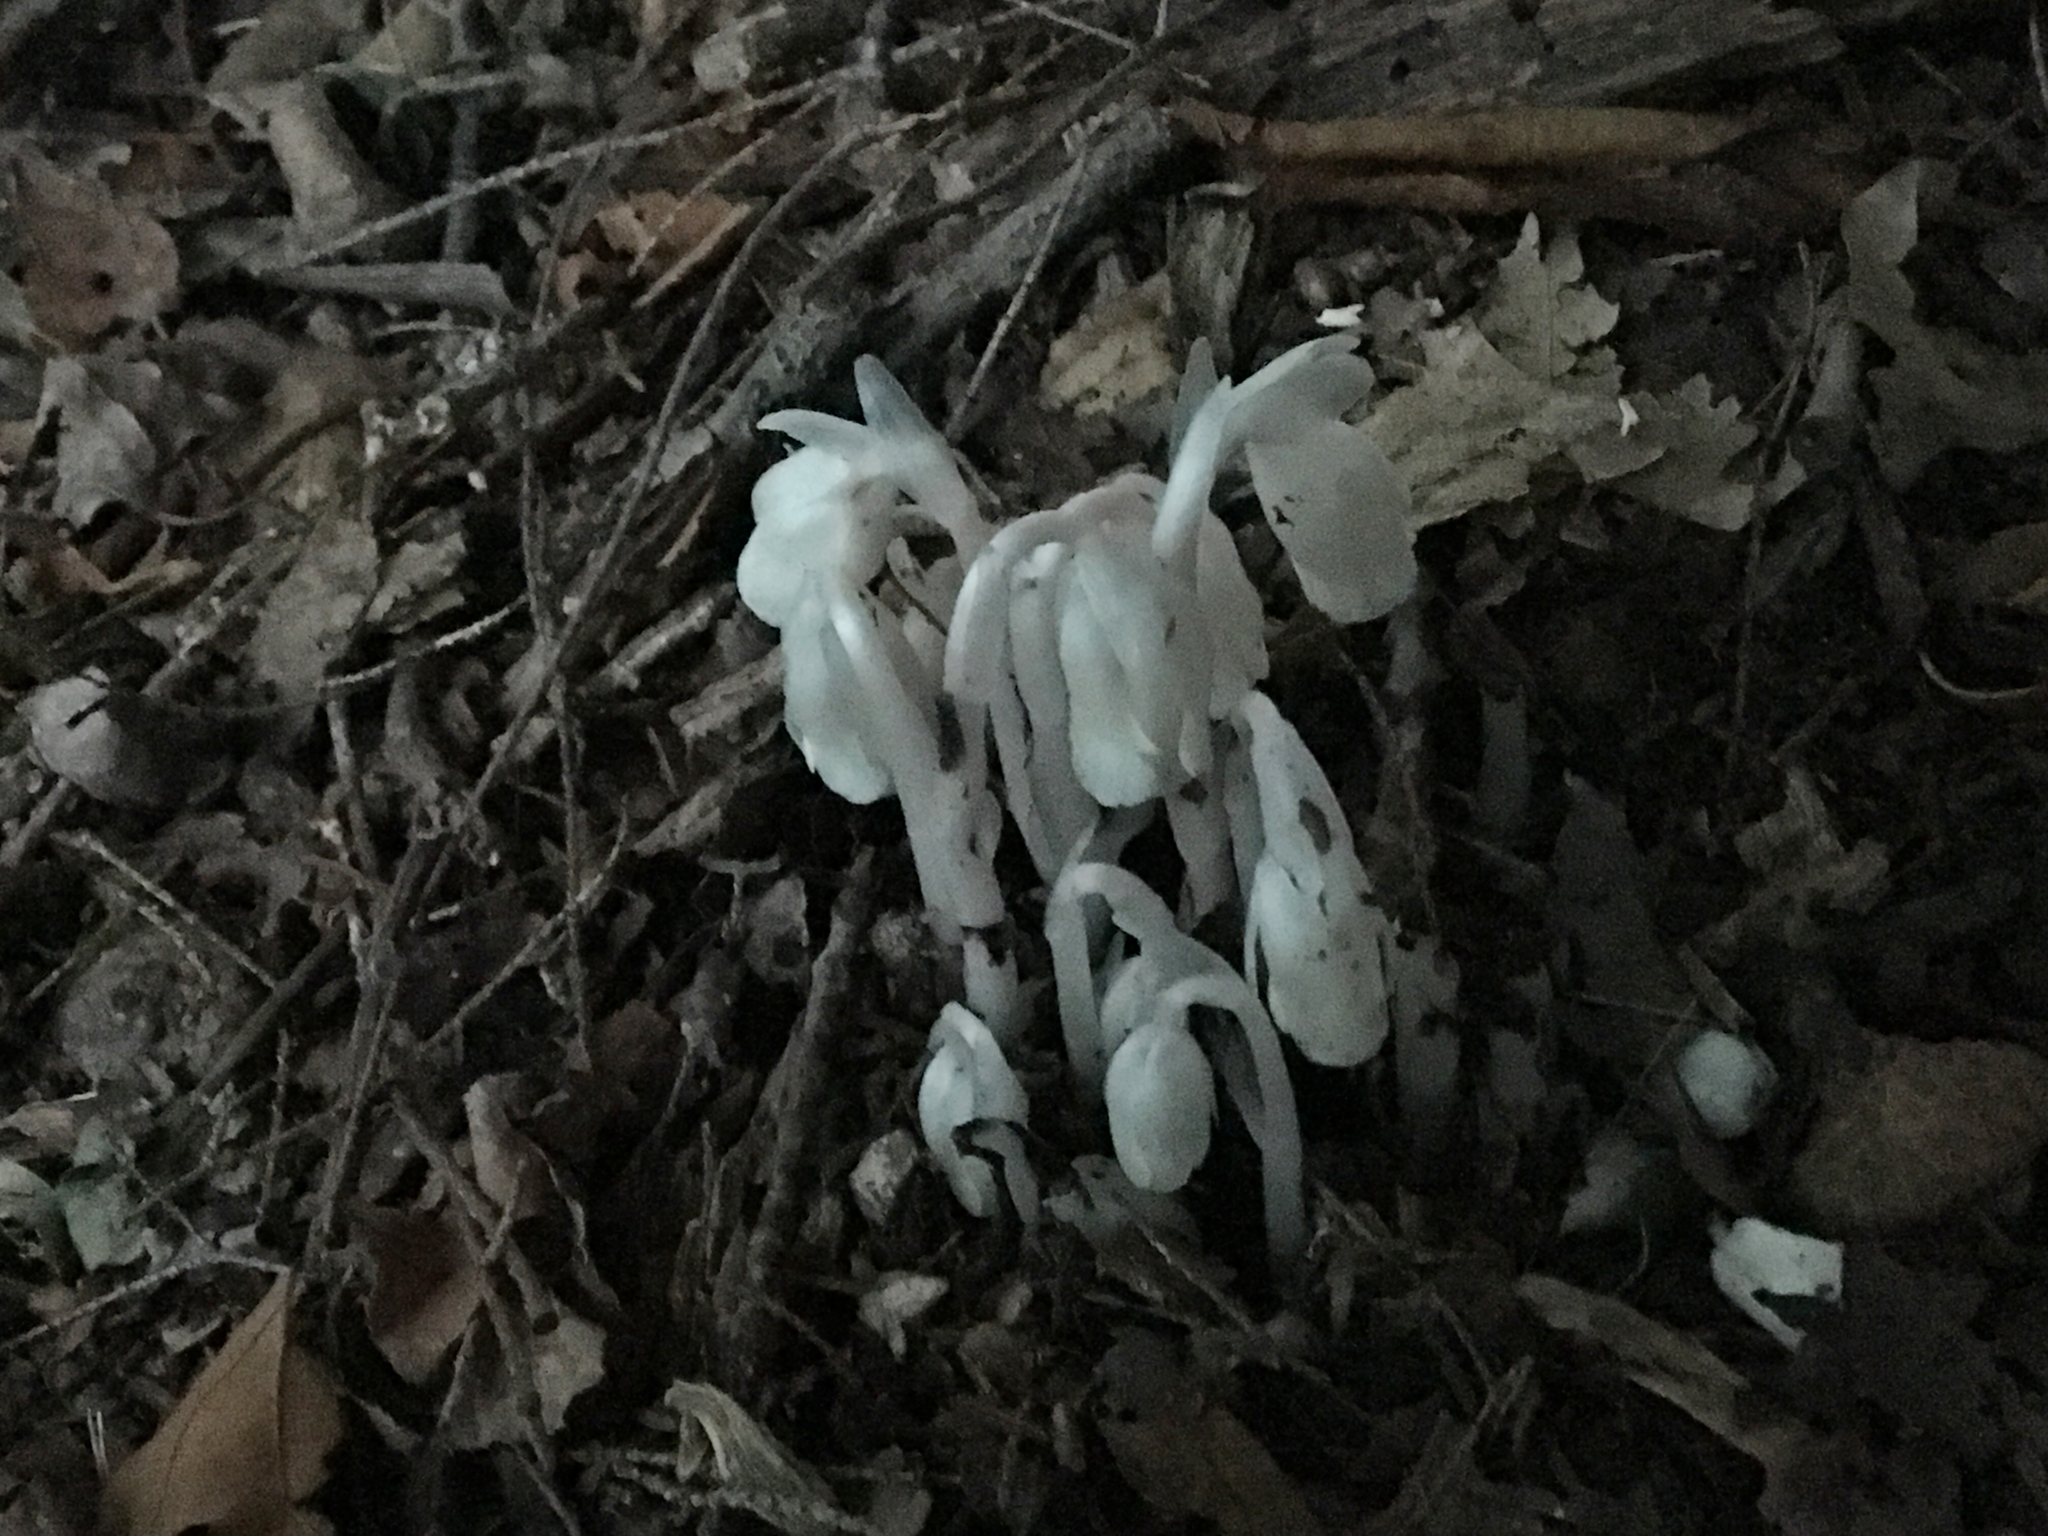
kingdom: Plantae
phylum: Tracheophyta
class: Magnoliopsida
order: Ericales
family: Ericaceae
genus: Monotropa
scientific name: Monotropa uniflora
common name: Convulsion root
